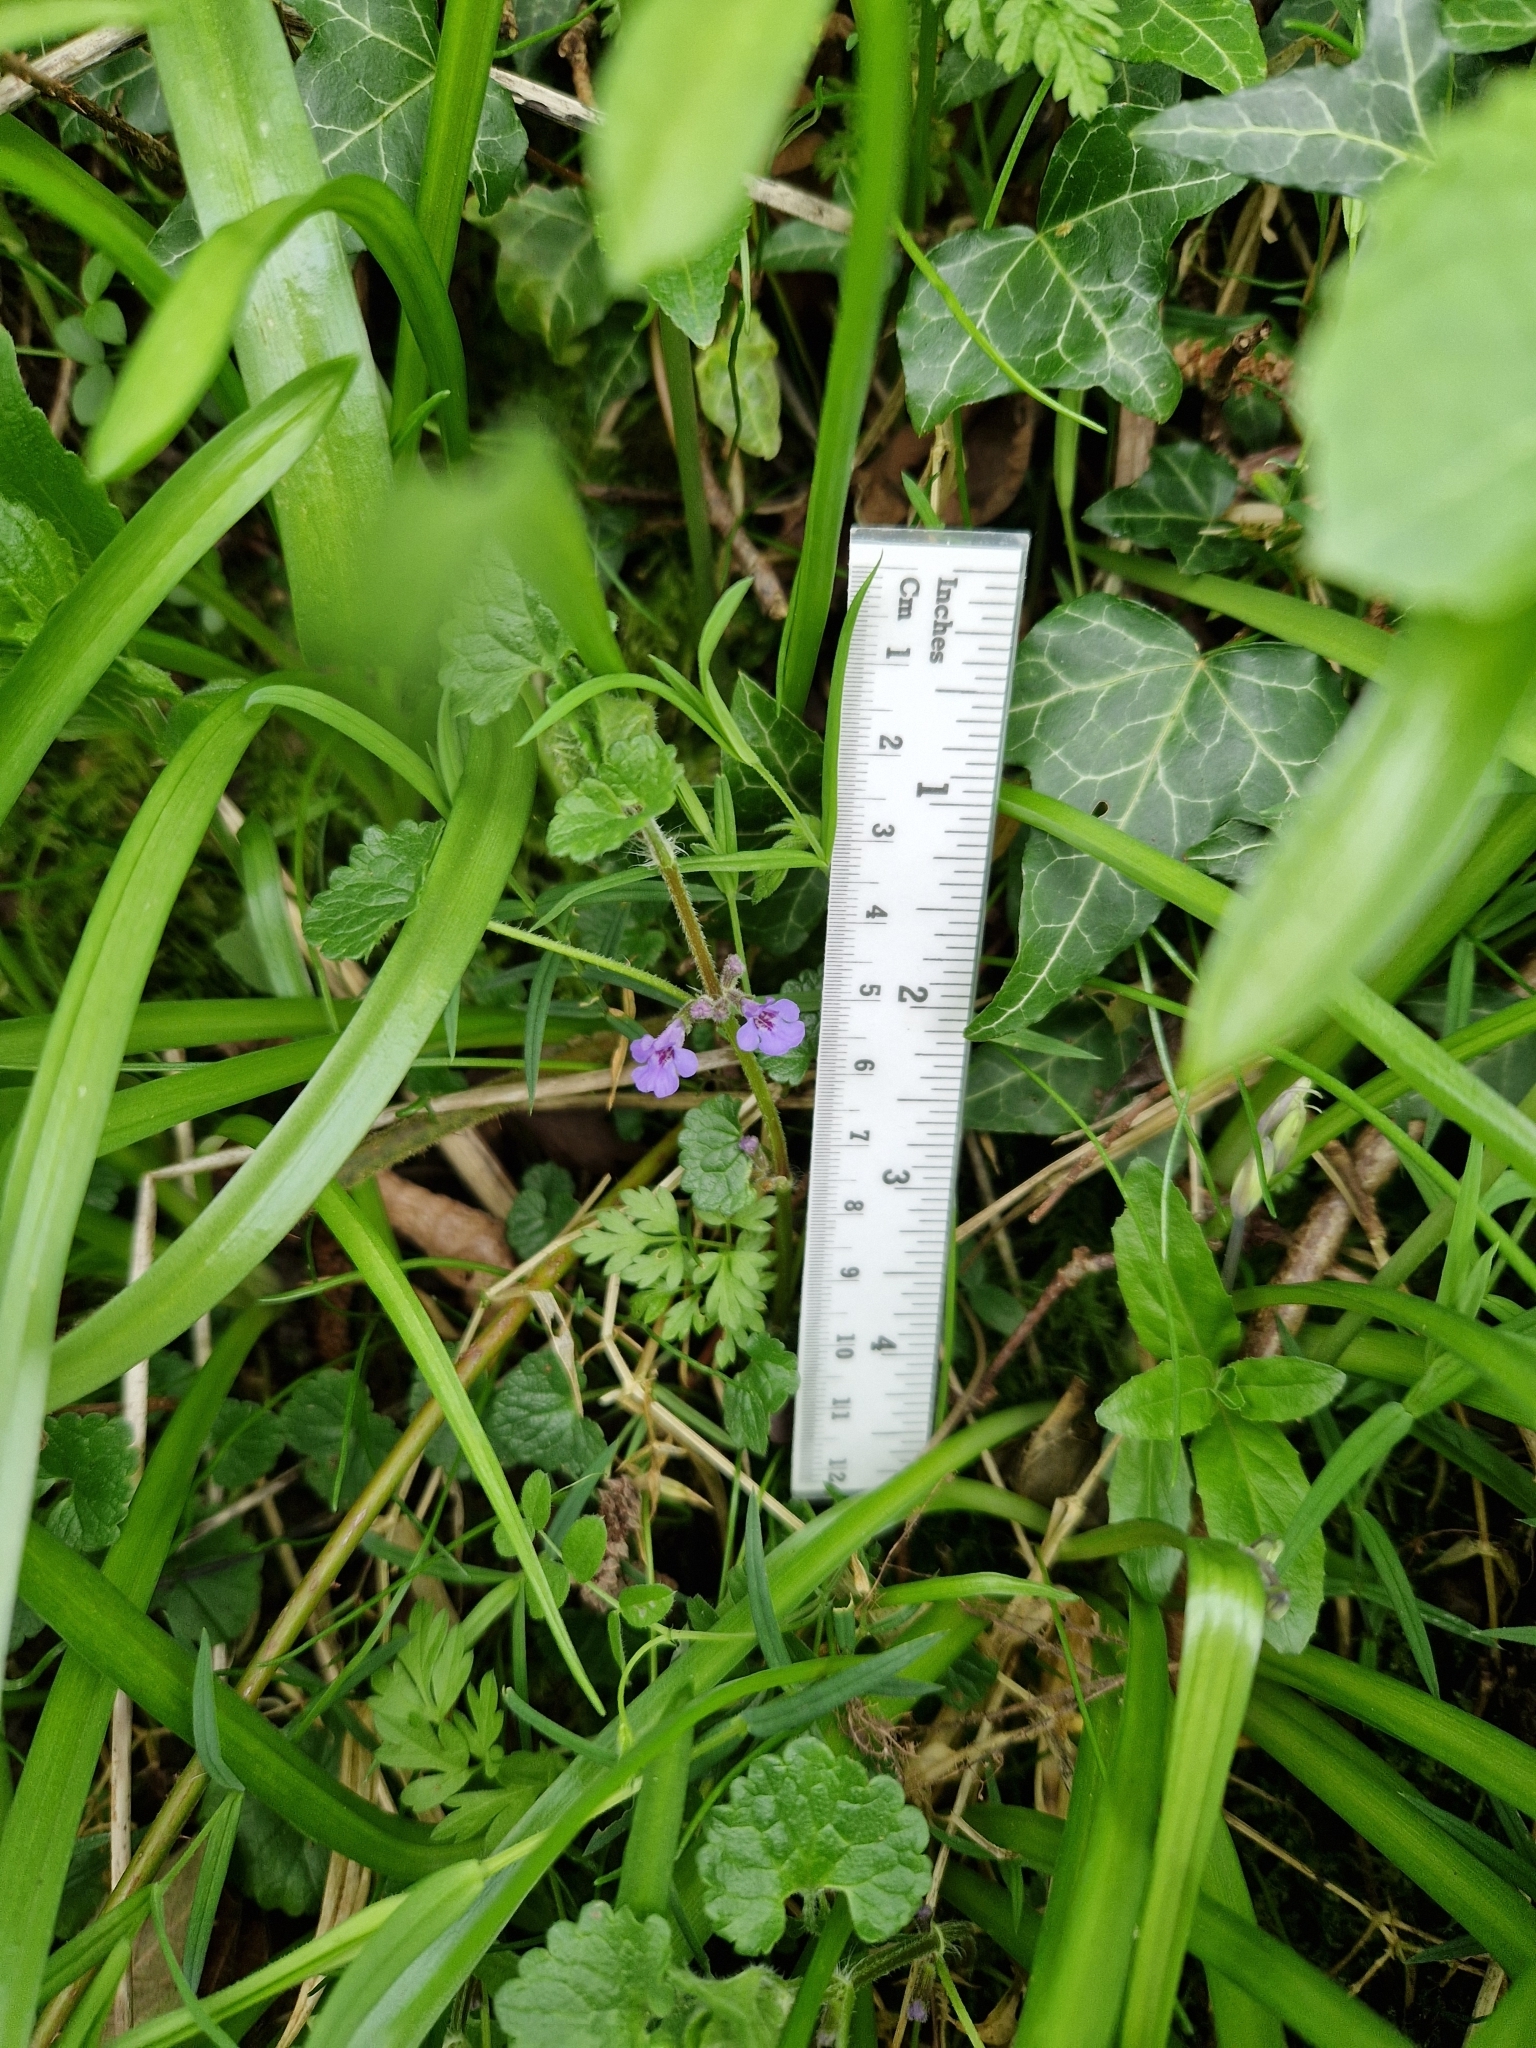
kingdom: Plantae
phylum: Tracheophyta
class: Magnoliopsida
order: Lamiales
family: Lamiaceae
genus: Glechoma
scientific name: Glechoma hederacea
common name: Ground ivy
